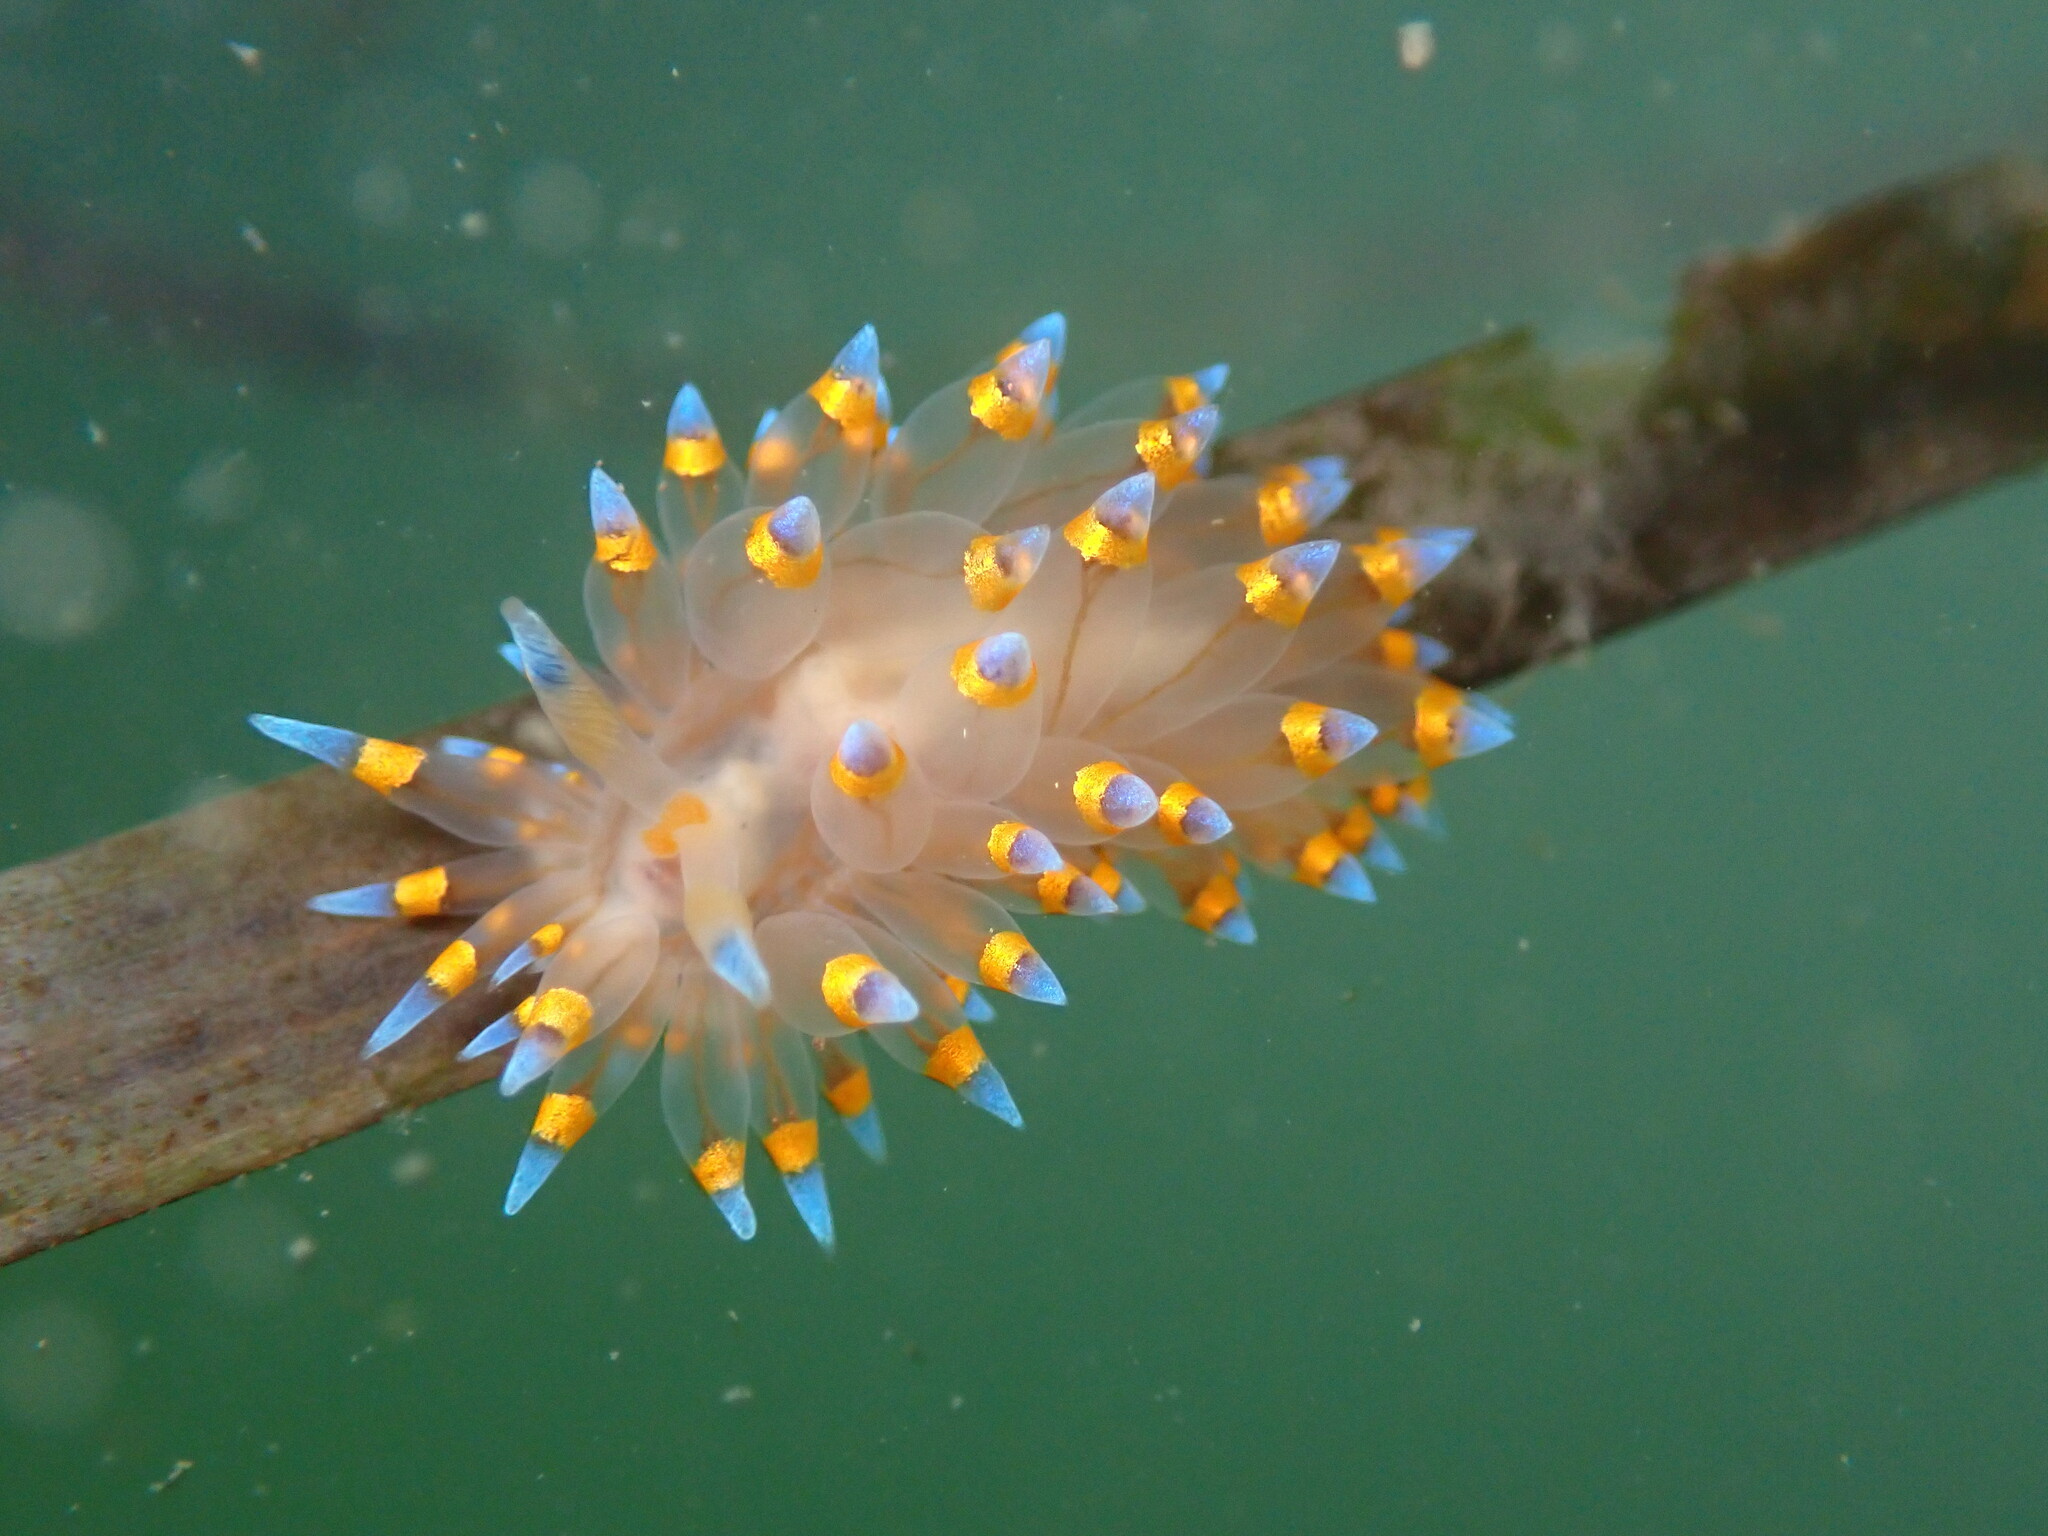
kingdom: Animalia
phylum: Mollusca
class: Gastropoda
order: Nudibranchia
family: Janolidae
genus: Antiopella
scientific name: Antiopella barbarensis
